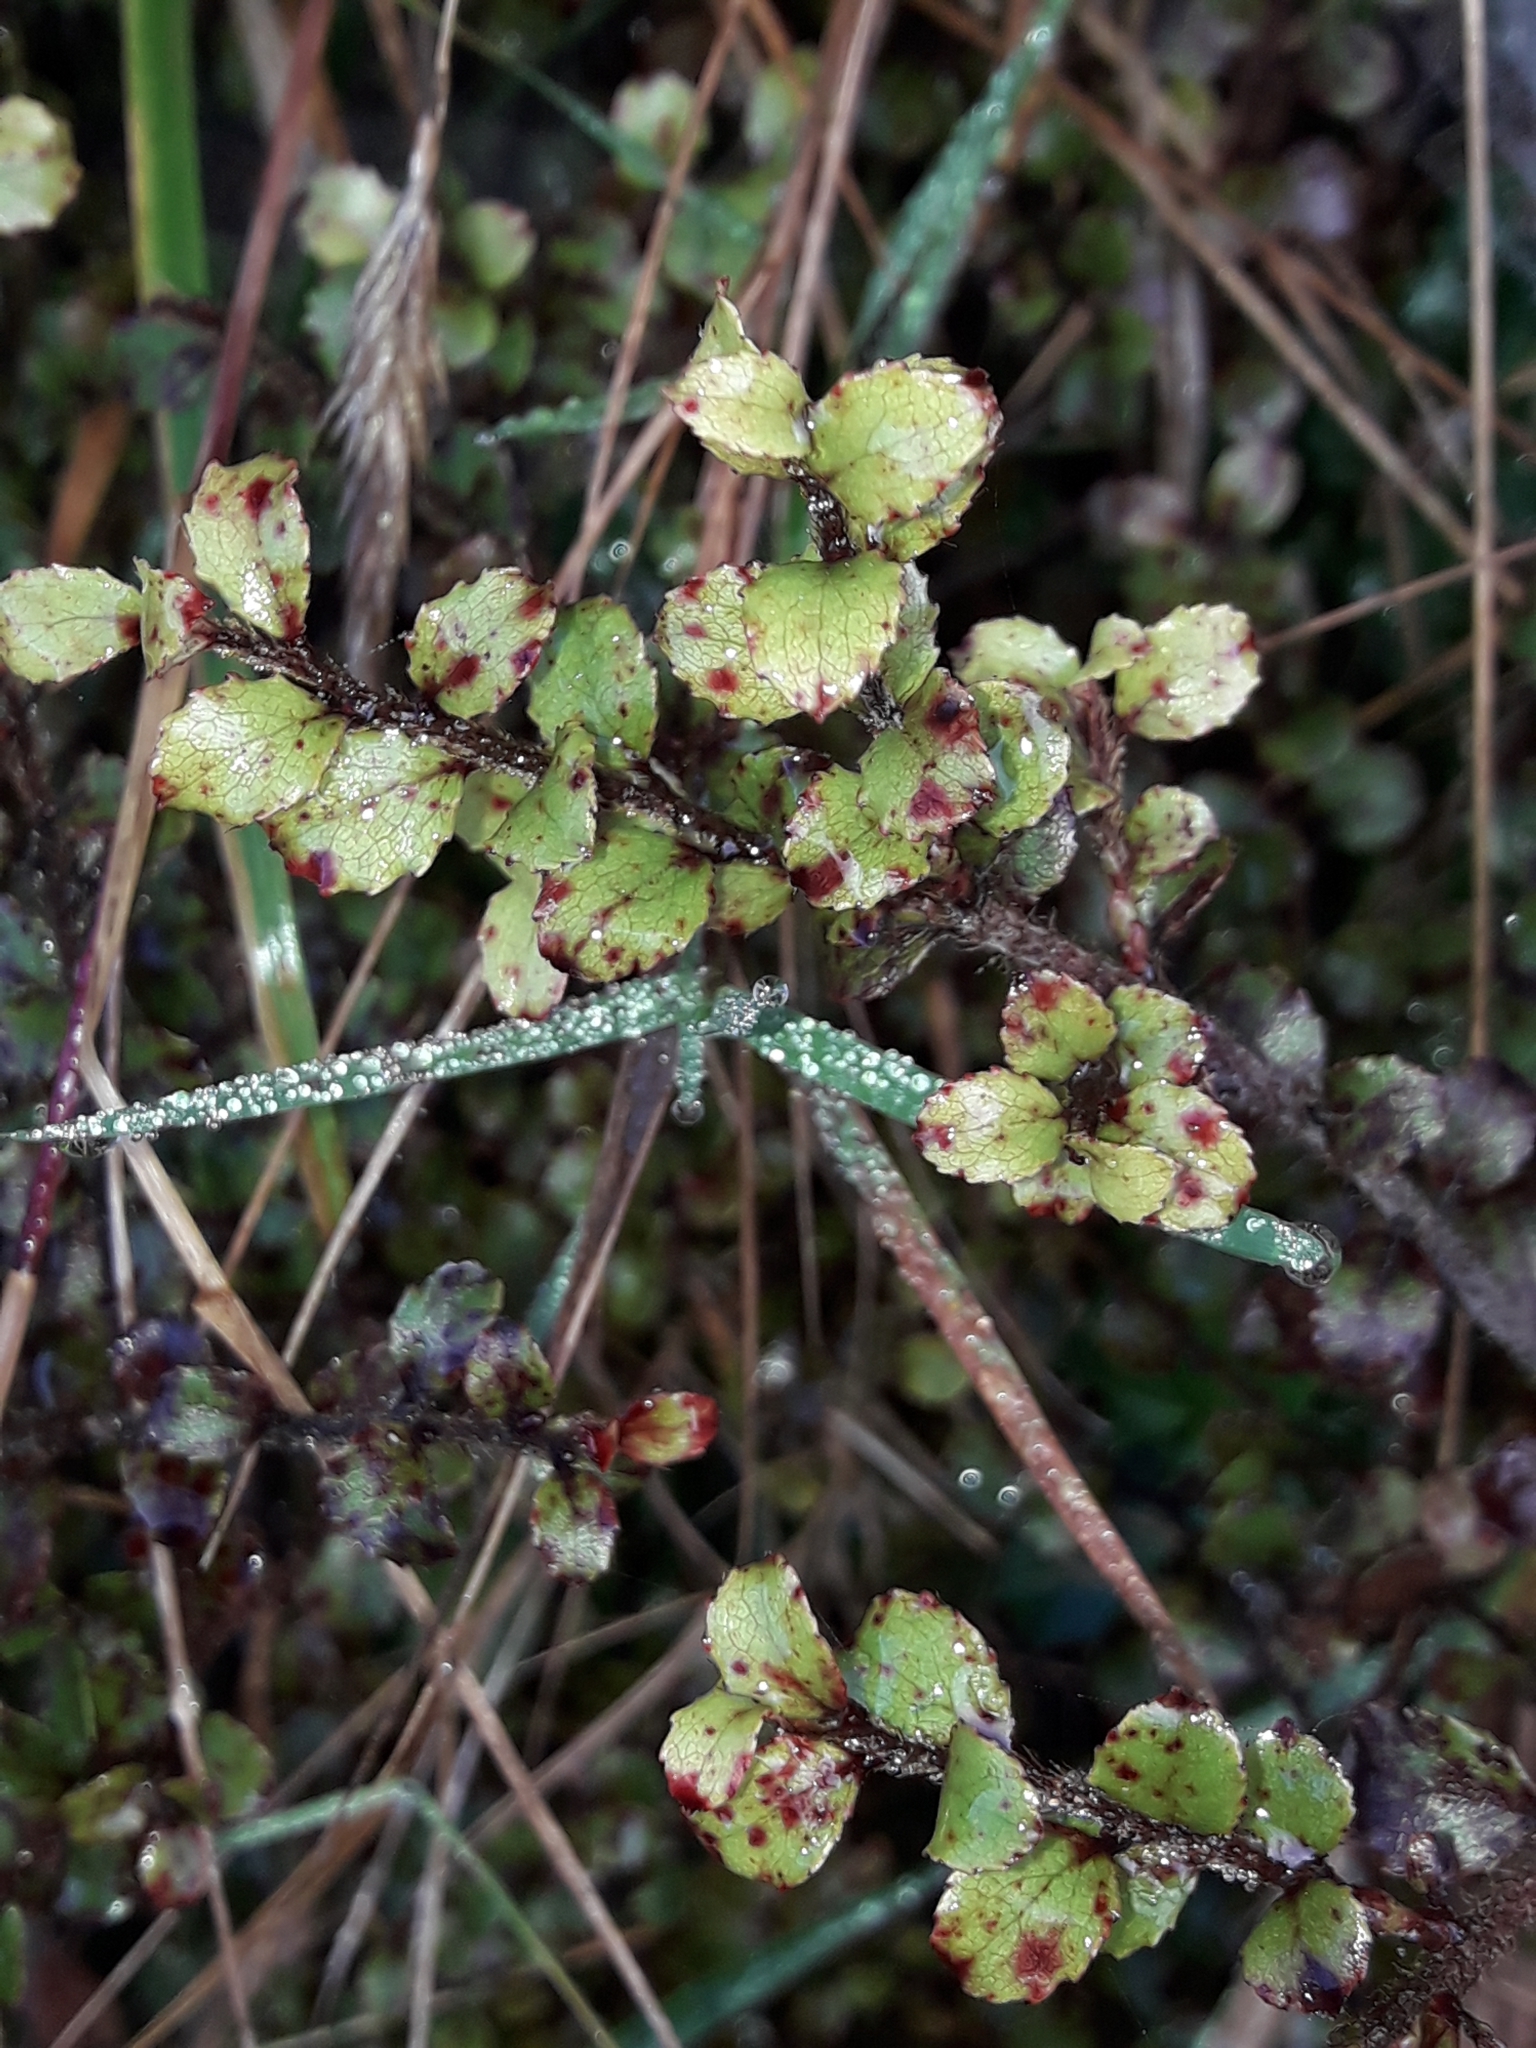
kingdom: Plantae
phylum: Tracheophyta
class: Magnoliopsida
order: Ericales
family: Ericaceae
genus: Gaultheria
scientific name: Gaultheria antipoda
